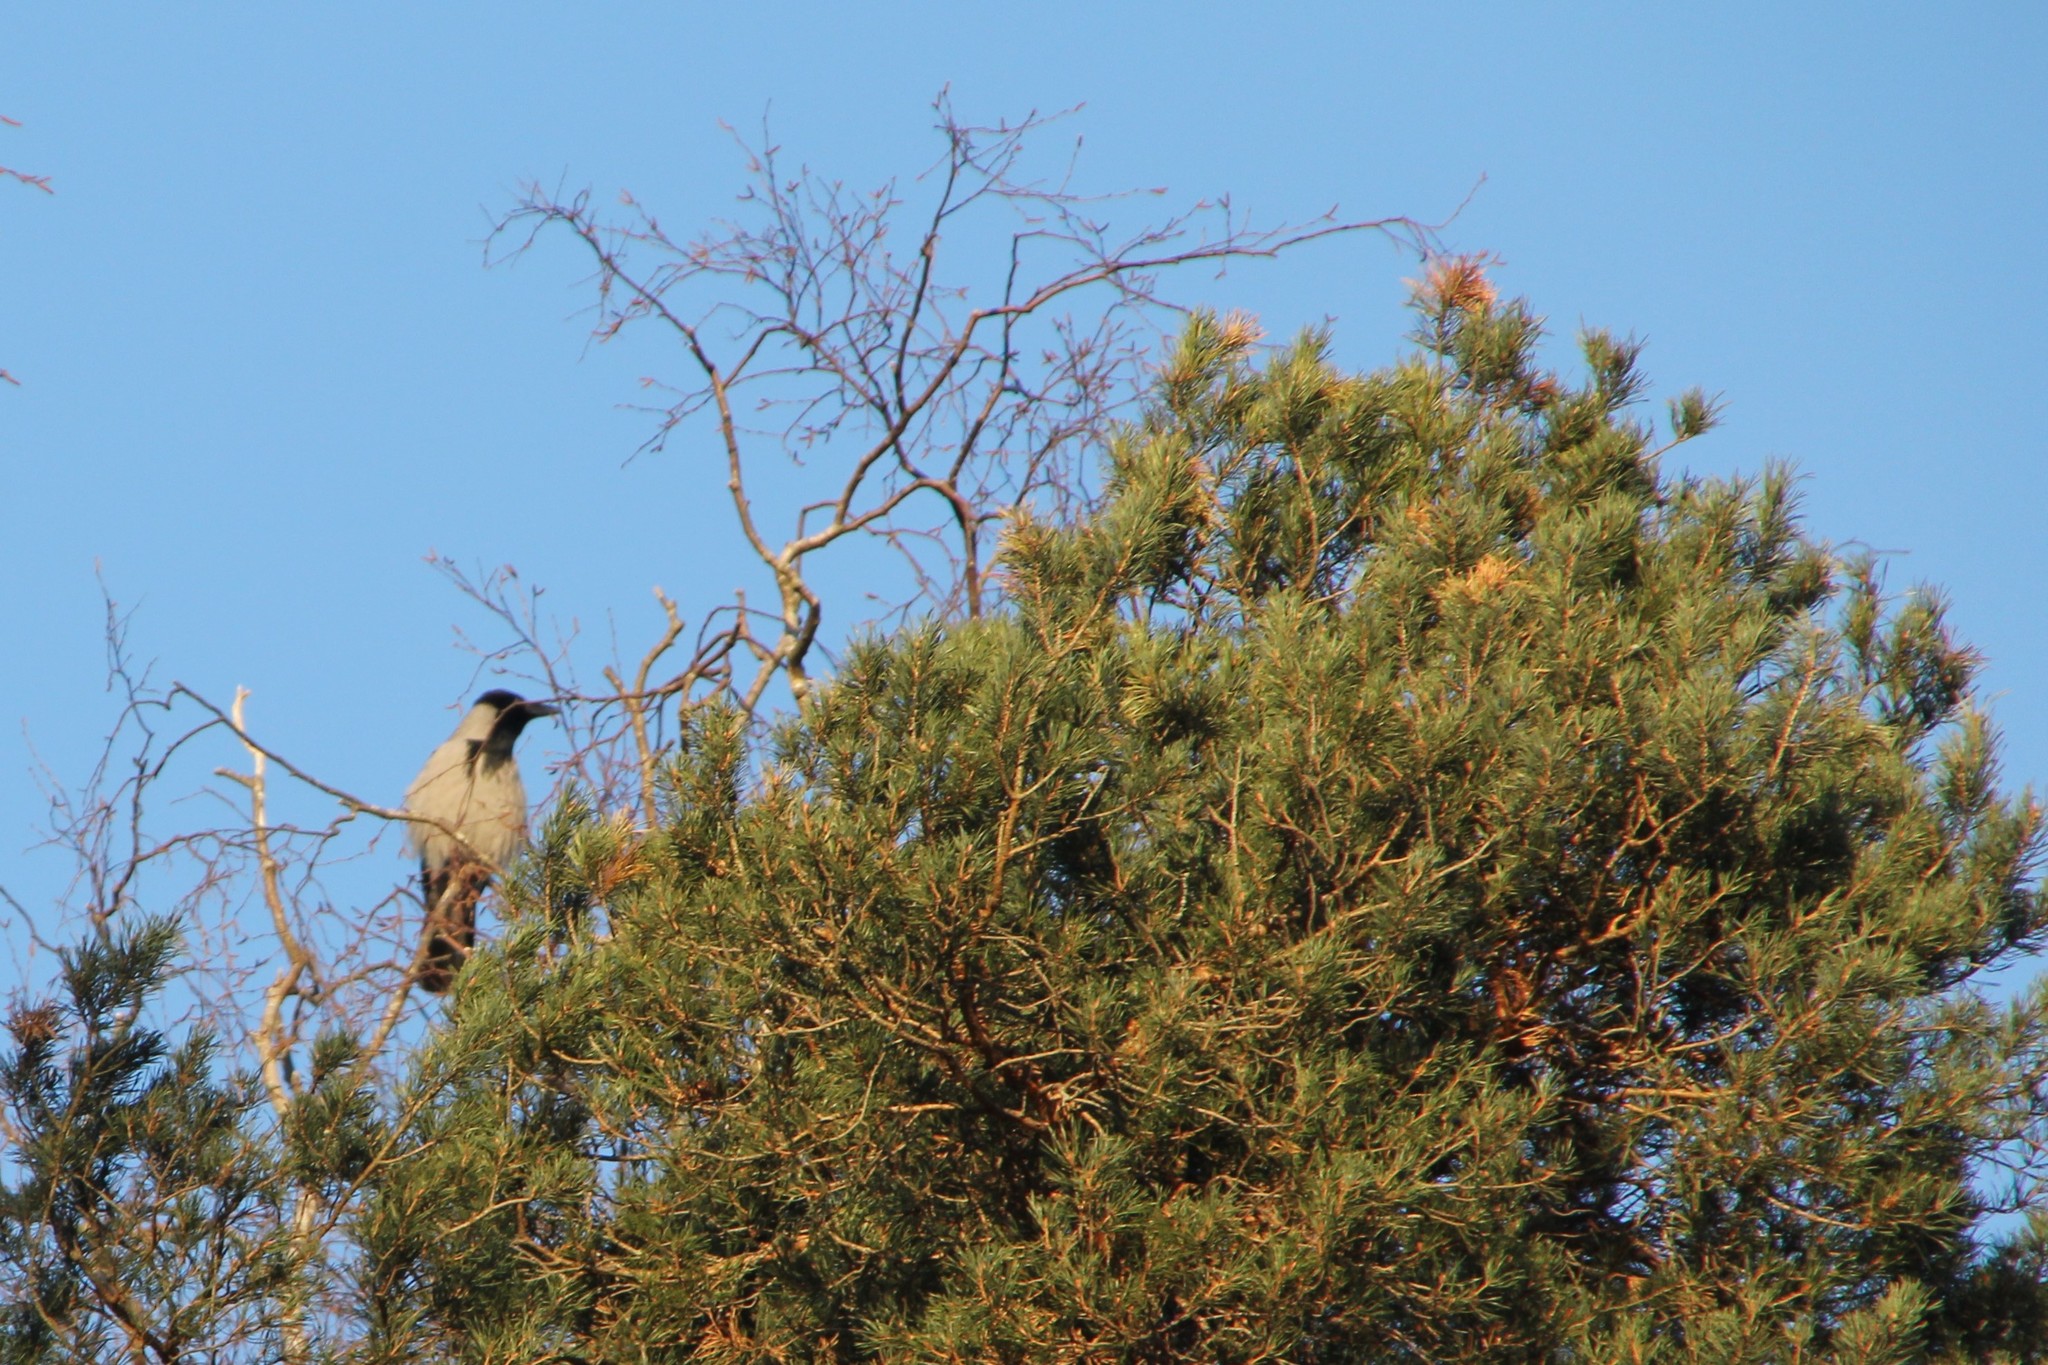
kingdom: Animalia
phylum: Chordata
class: Aves
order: Passeriformes
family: Corvidae
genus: Corvus
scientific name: Corvus cornix
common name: Hooded crow
